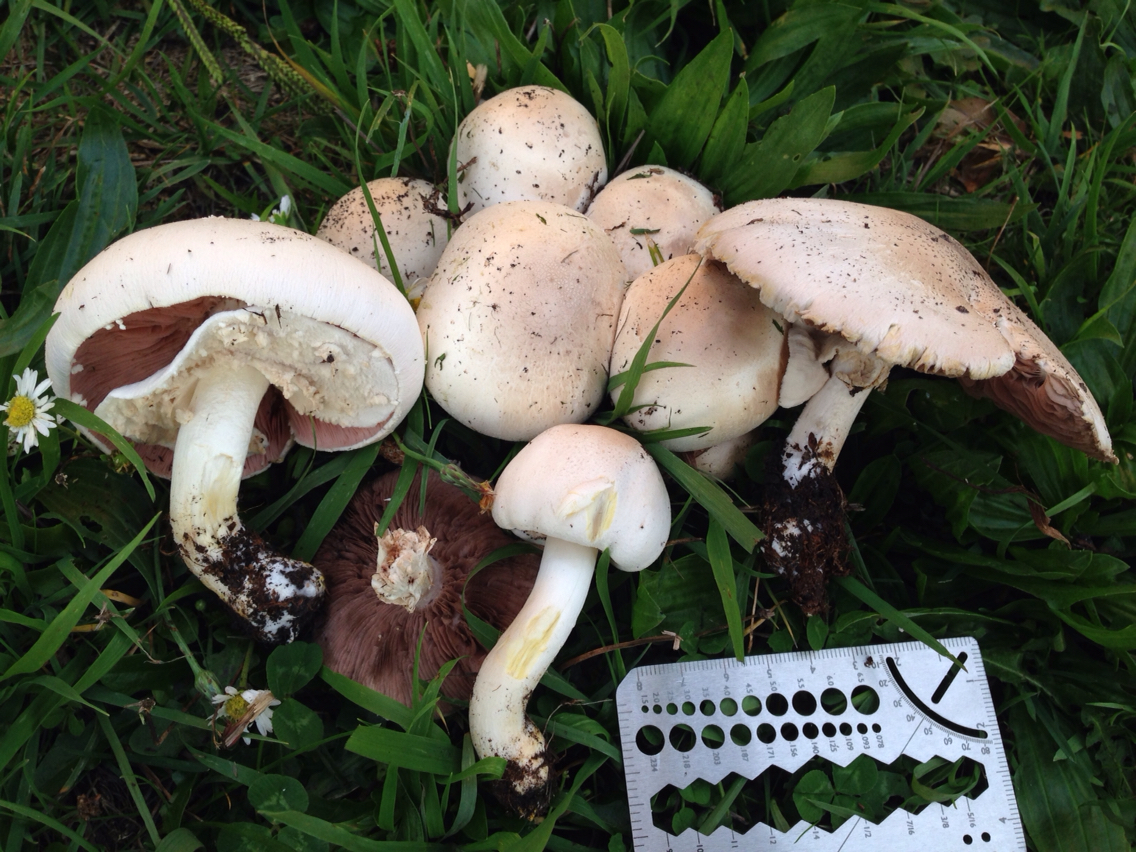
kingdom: Fungi
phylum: Basidiomycota
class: Agaricomycetes
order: Agaricales
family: Agaricaceae
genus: Agaricus
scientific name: Agaricus xanthodermus
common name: Yellow stainer
